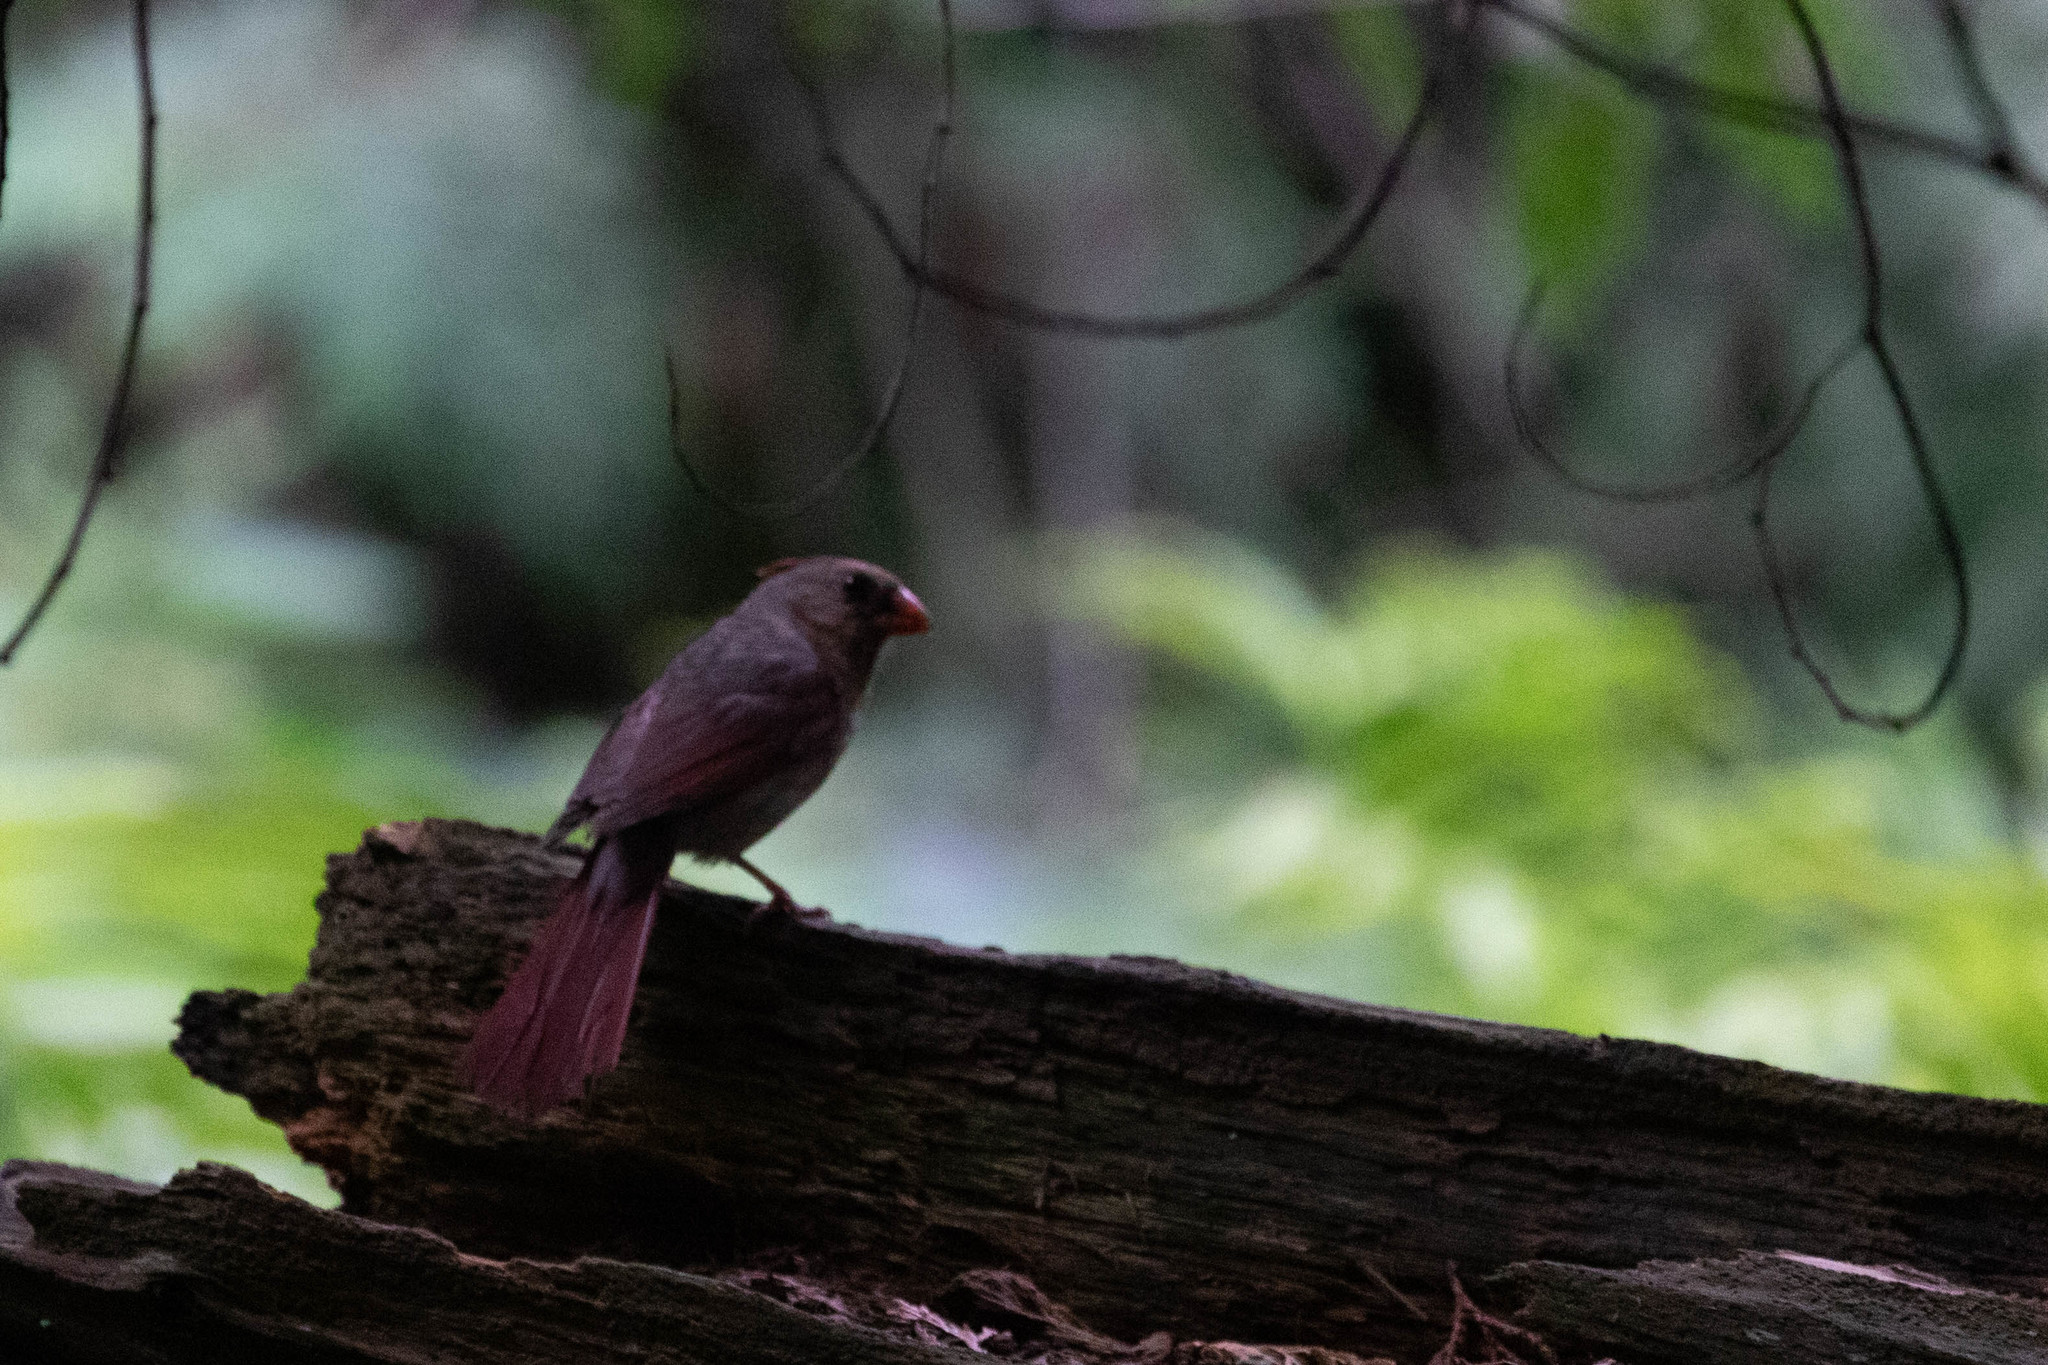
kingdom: Animalia
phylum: Chordata
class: Aves
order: Passeriformes
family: Cardinalidae
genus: Cardinalis
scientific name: Cardinalis cardinalis
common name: Northern cardinal
